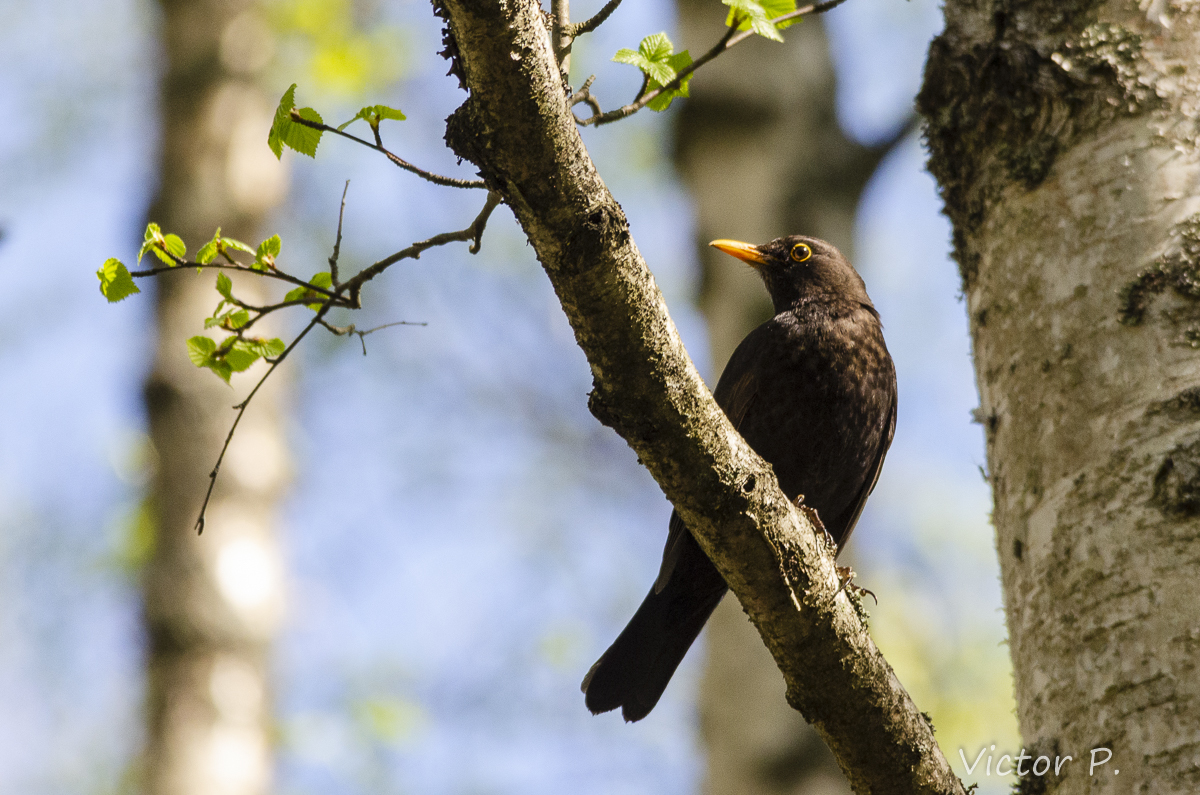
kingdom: Animalia
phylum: Chordata
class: Aves
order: Passeriformes
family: Turdidae
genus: Turdus
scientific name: Turdus merula
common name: Common blackbird
